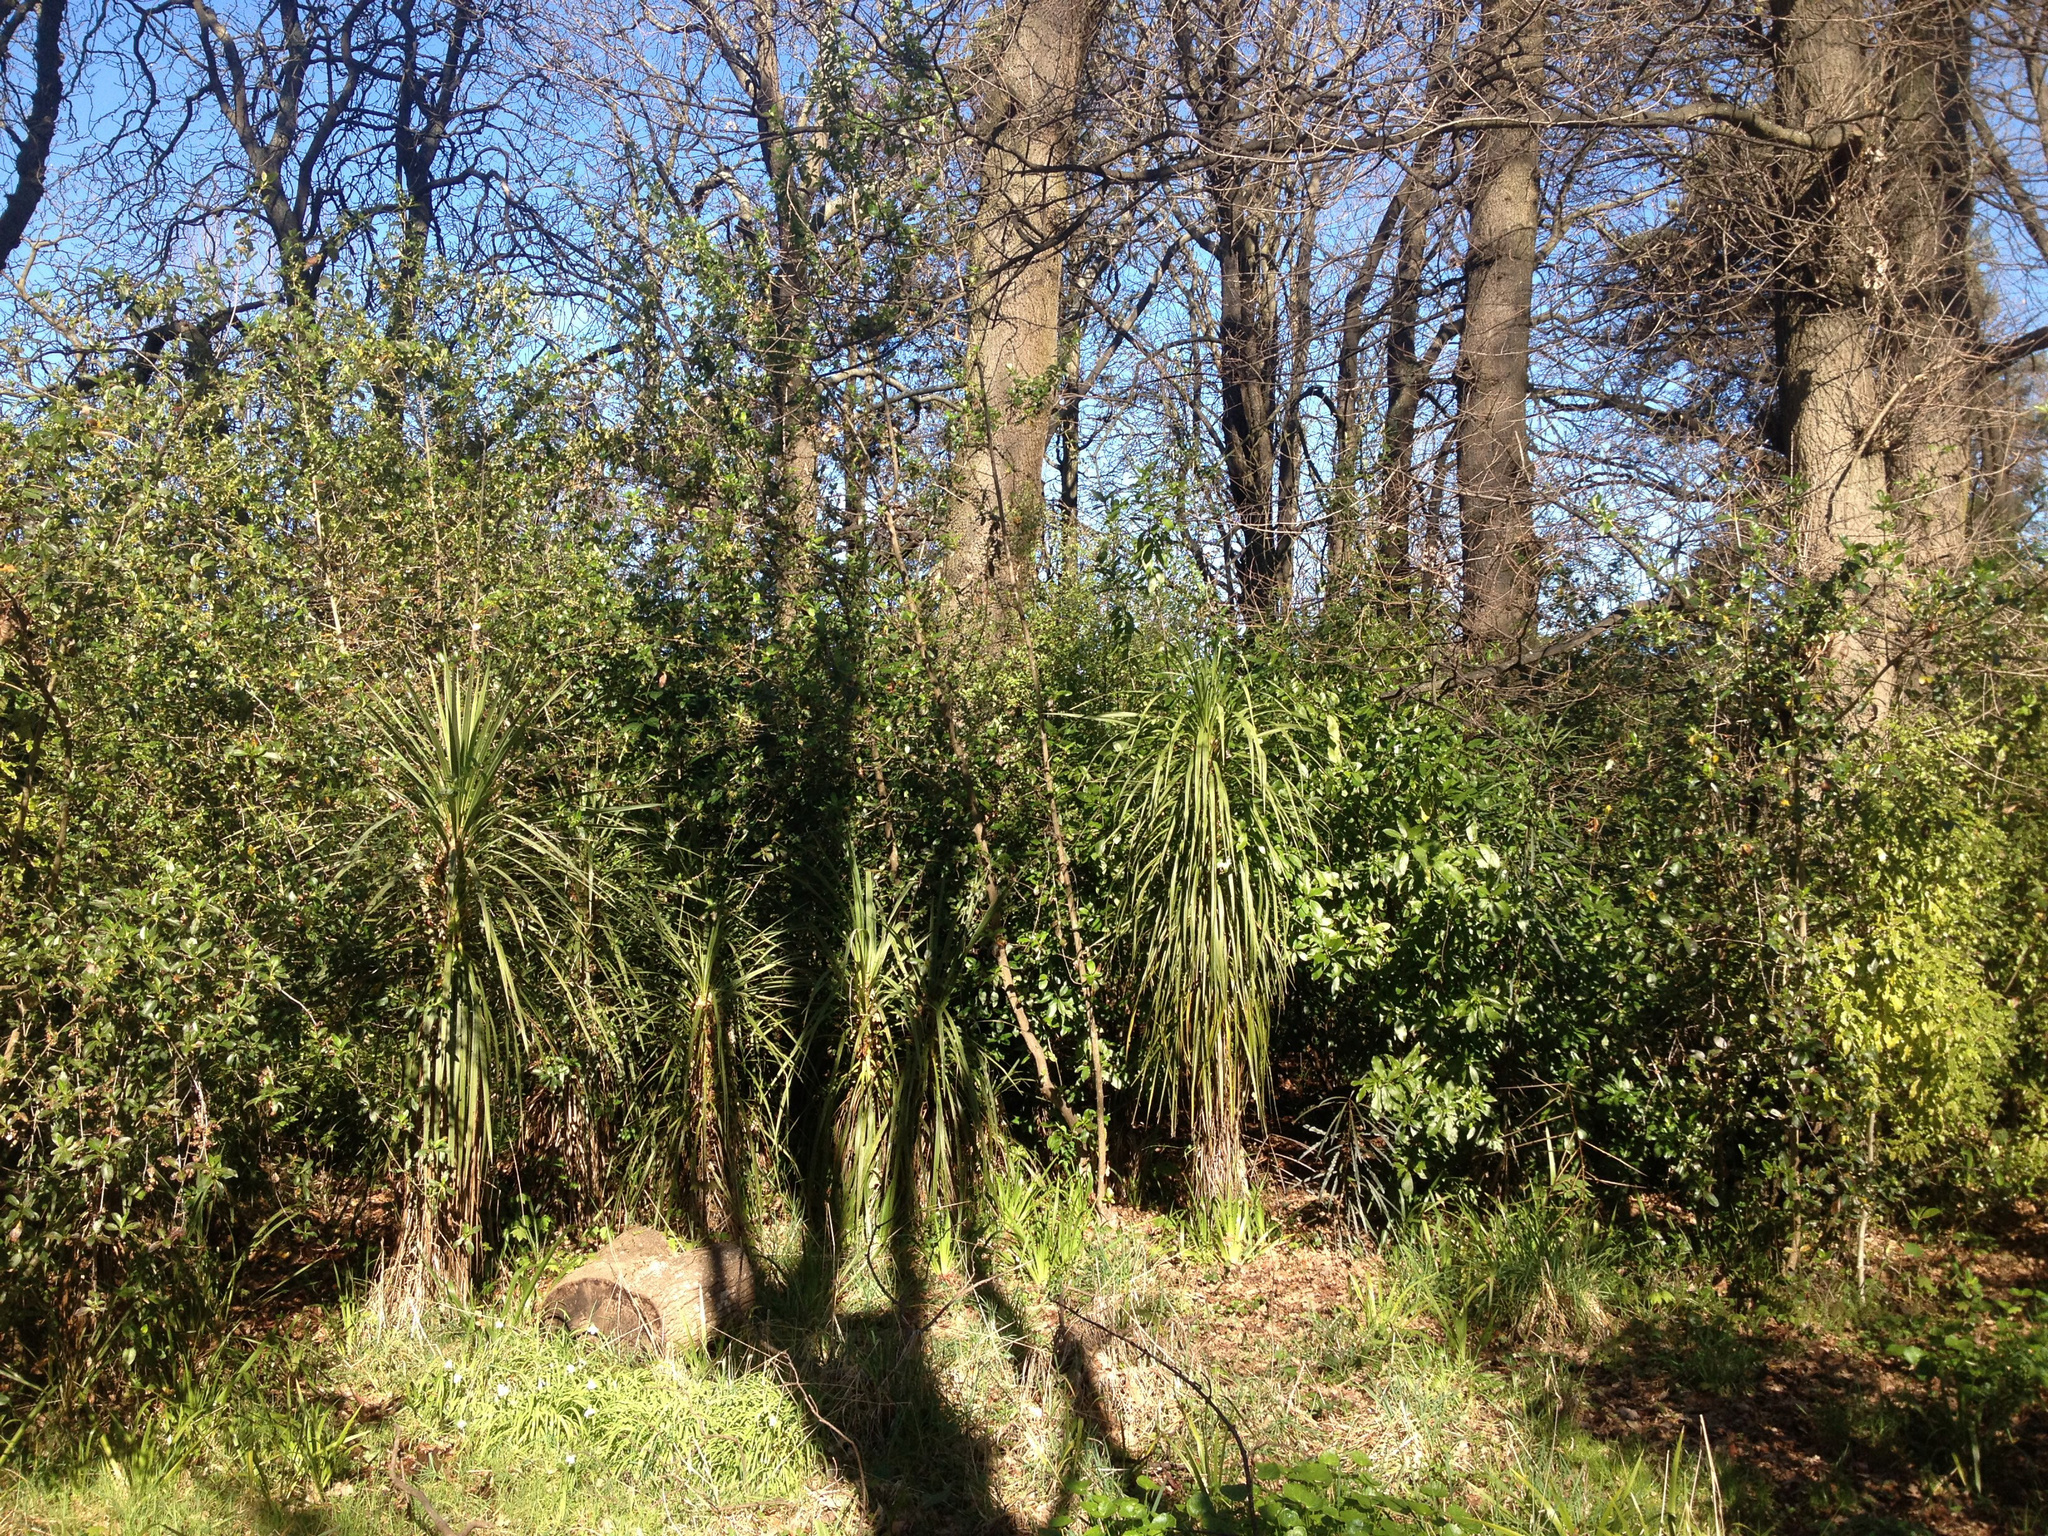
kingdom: Plantae
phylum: Tracheophyta
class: Liliopsida
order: Asparagales
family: Asparagaceae
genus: Cordyline
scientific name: Cordyline australis
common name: Cabbage-palm
